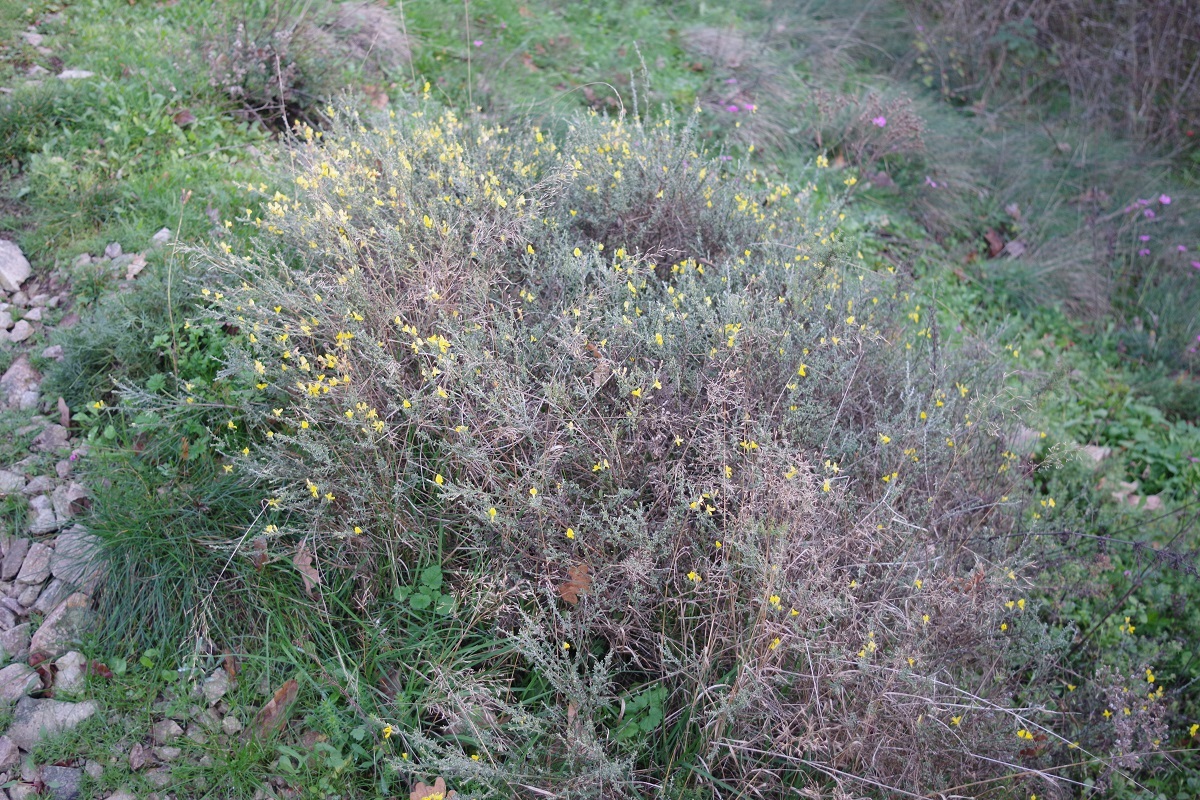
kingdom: Plantae
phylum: Tracheophyta
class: Magnoliopsida
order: Fabales
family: Fabaceae
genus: Genista
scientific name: Genista pilosa
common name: Hairy greenweed
